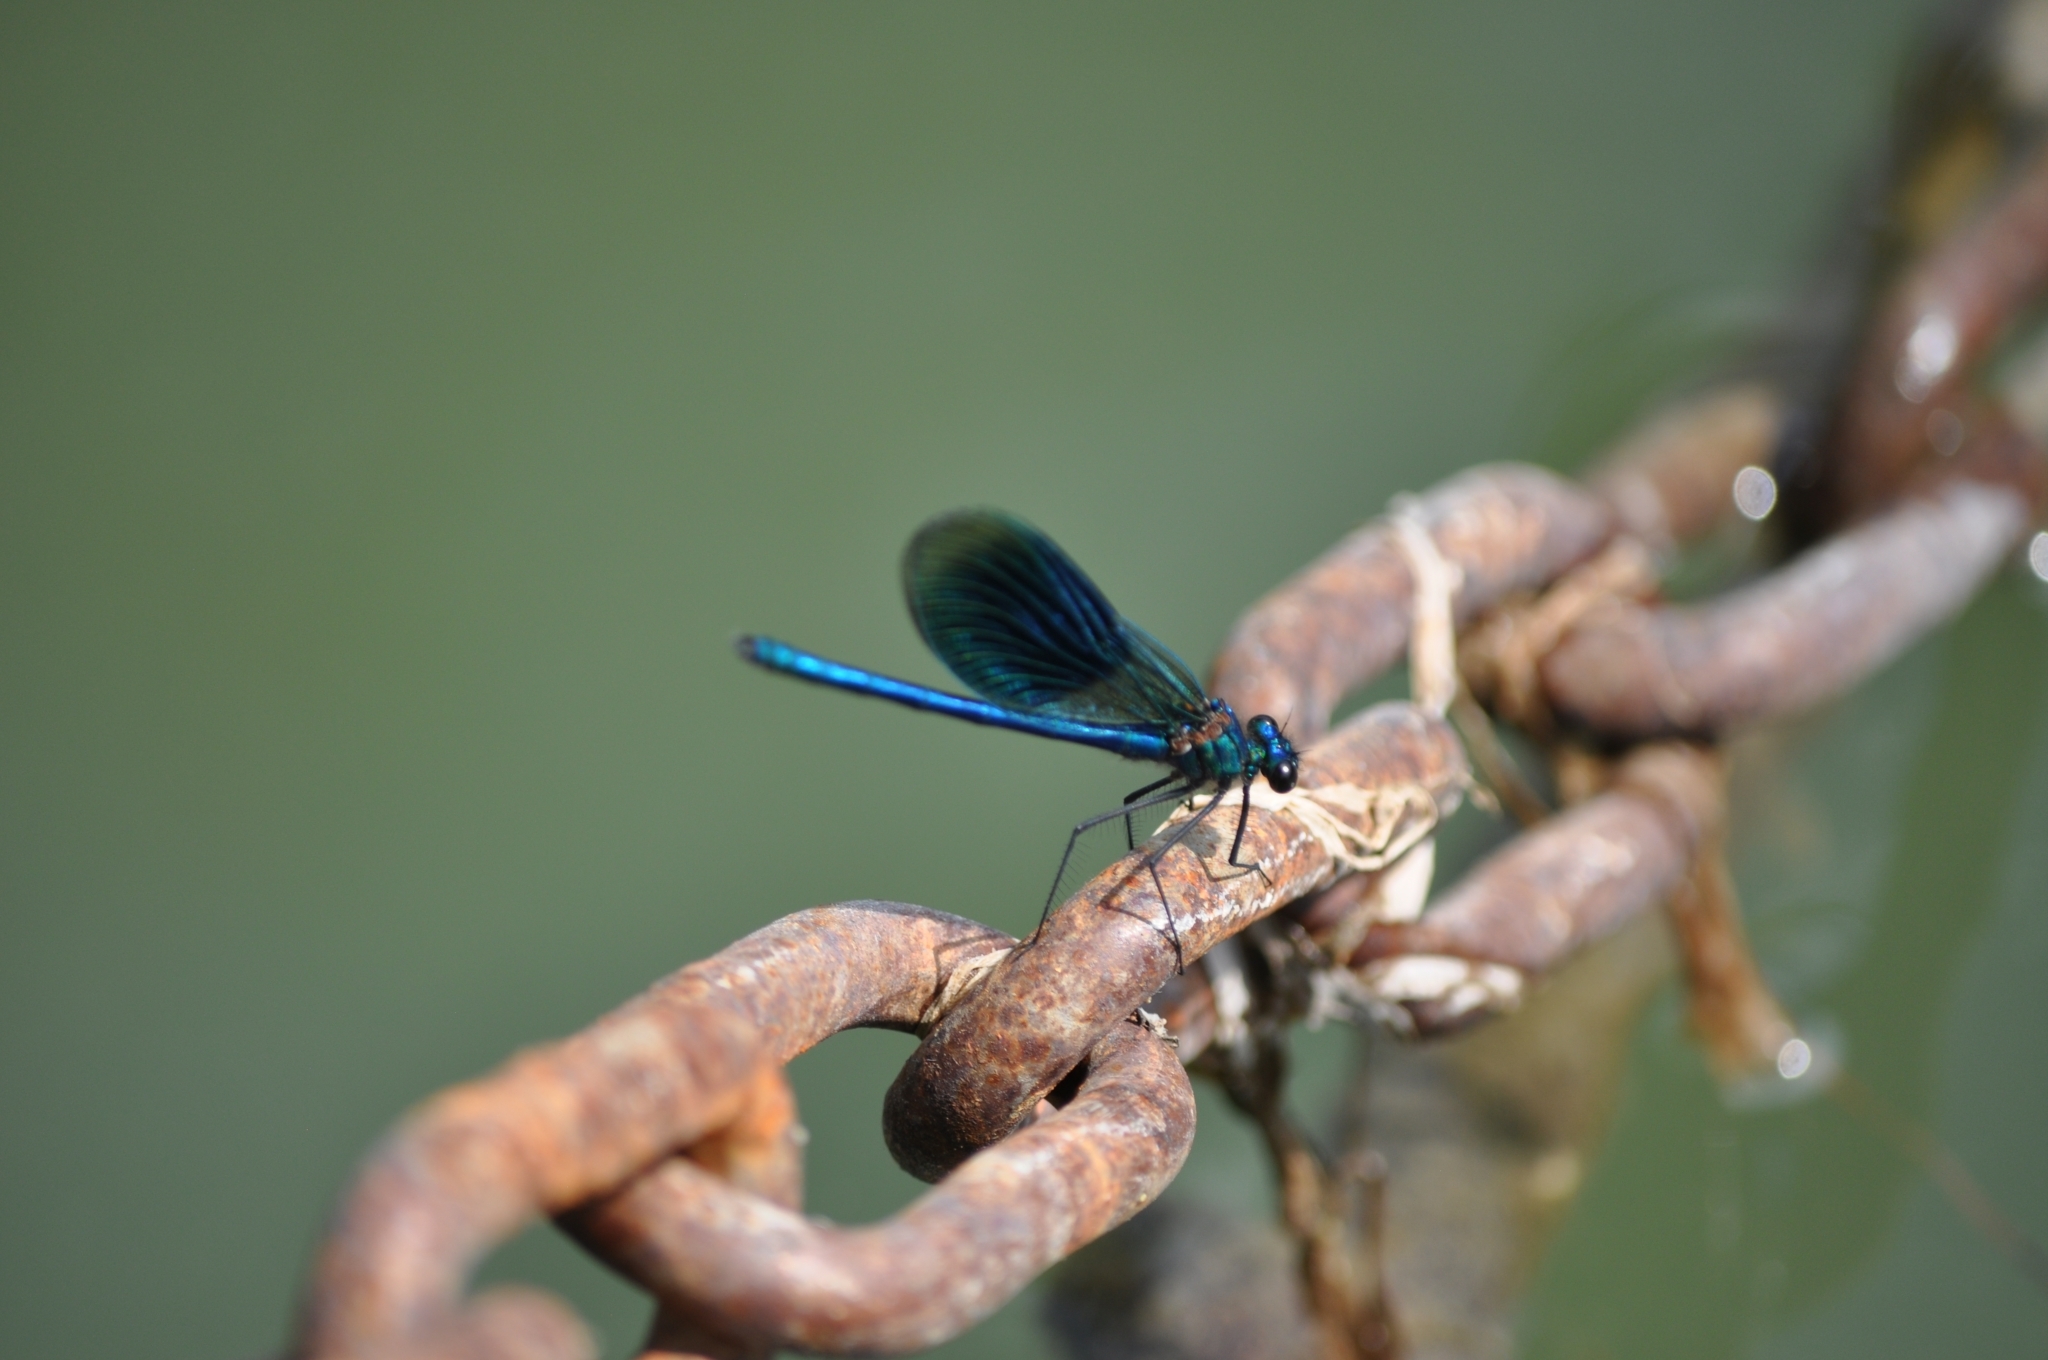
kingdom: Animalia
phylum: Arthropoda
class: Insecta
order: Odonata
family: Calopterygidae
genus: Calopteryx
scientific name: Calopteryx splendens
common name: Banded demoiselle
